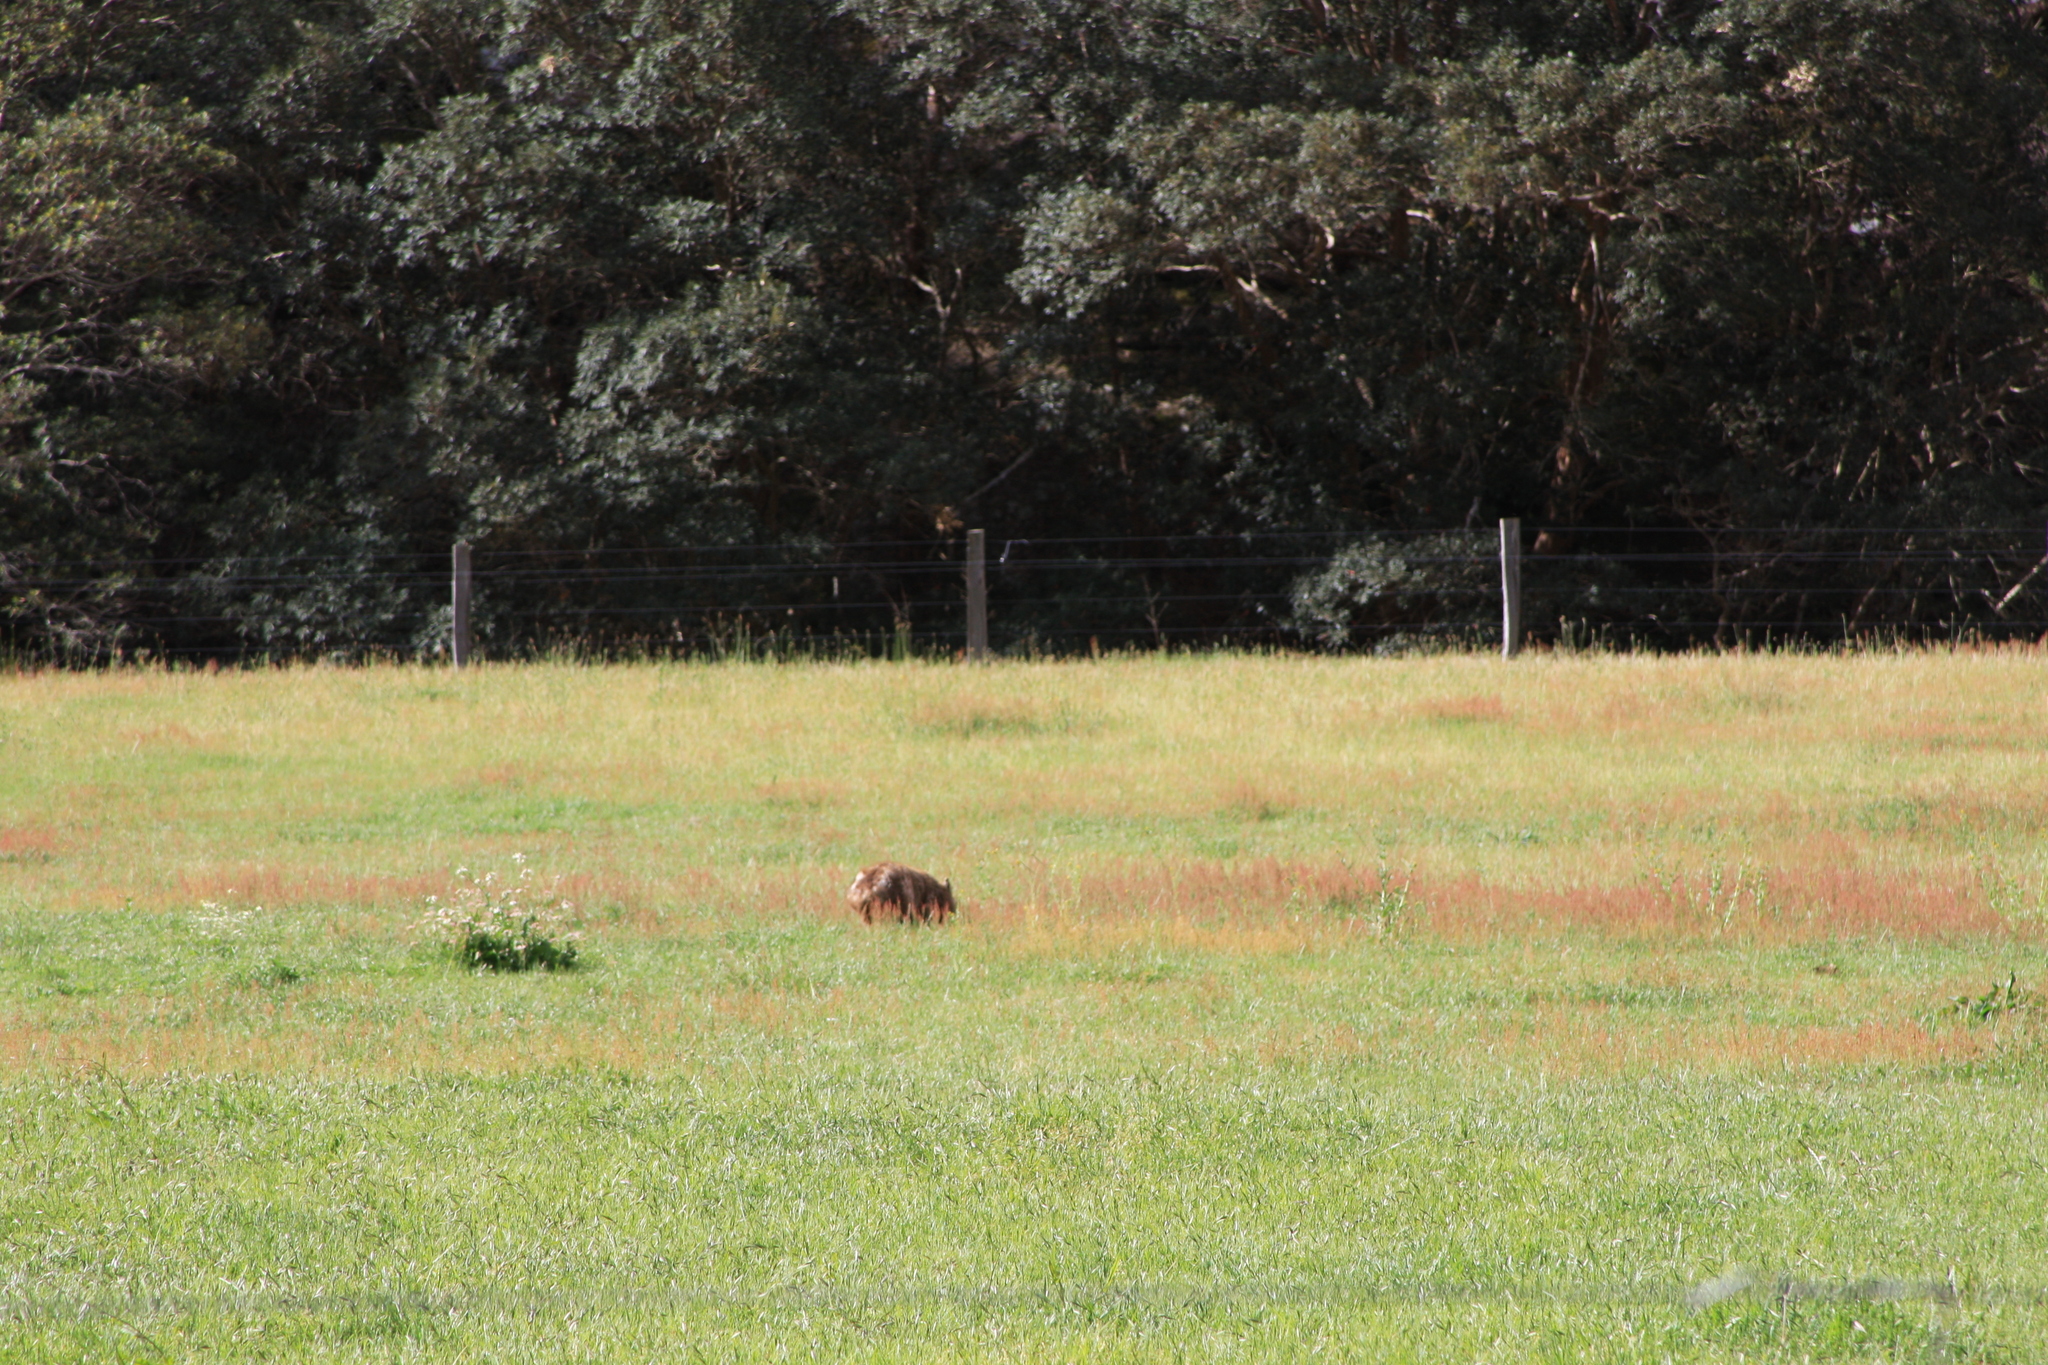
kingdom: Animalia
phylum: Chordata
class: Mammalia
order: Diprotodontia
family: Vombatidae
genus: Vombatus
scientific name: Vombatus ursinus
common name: Common wombat
